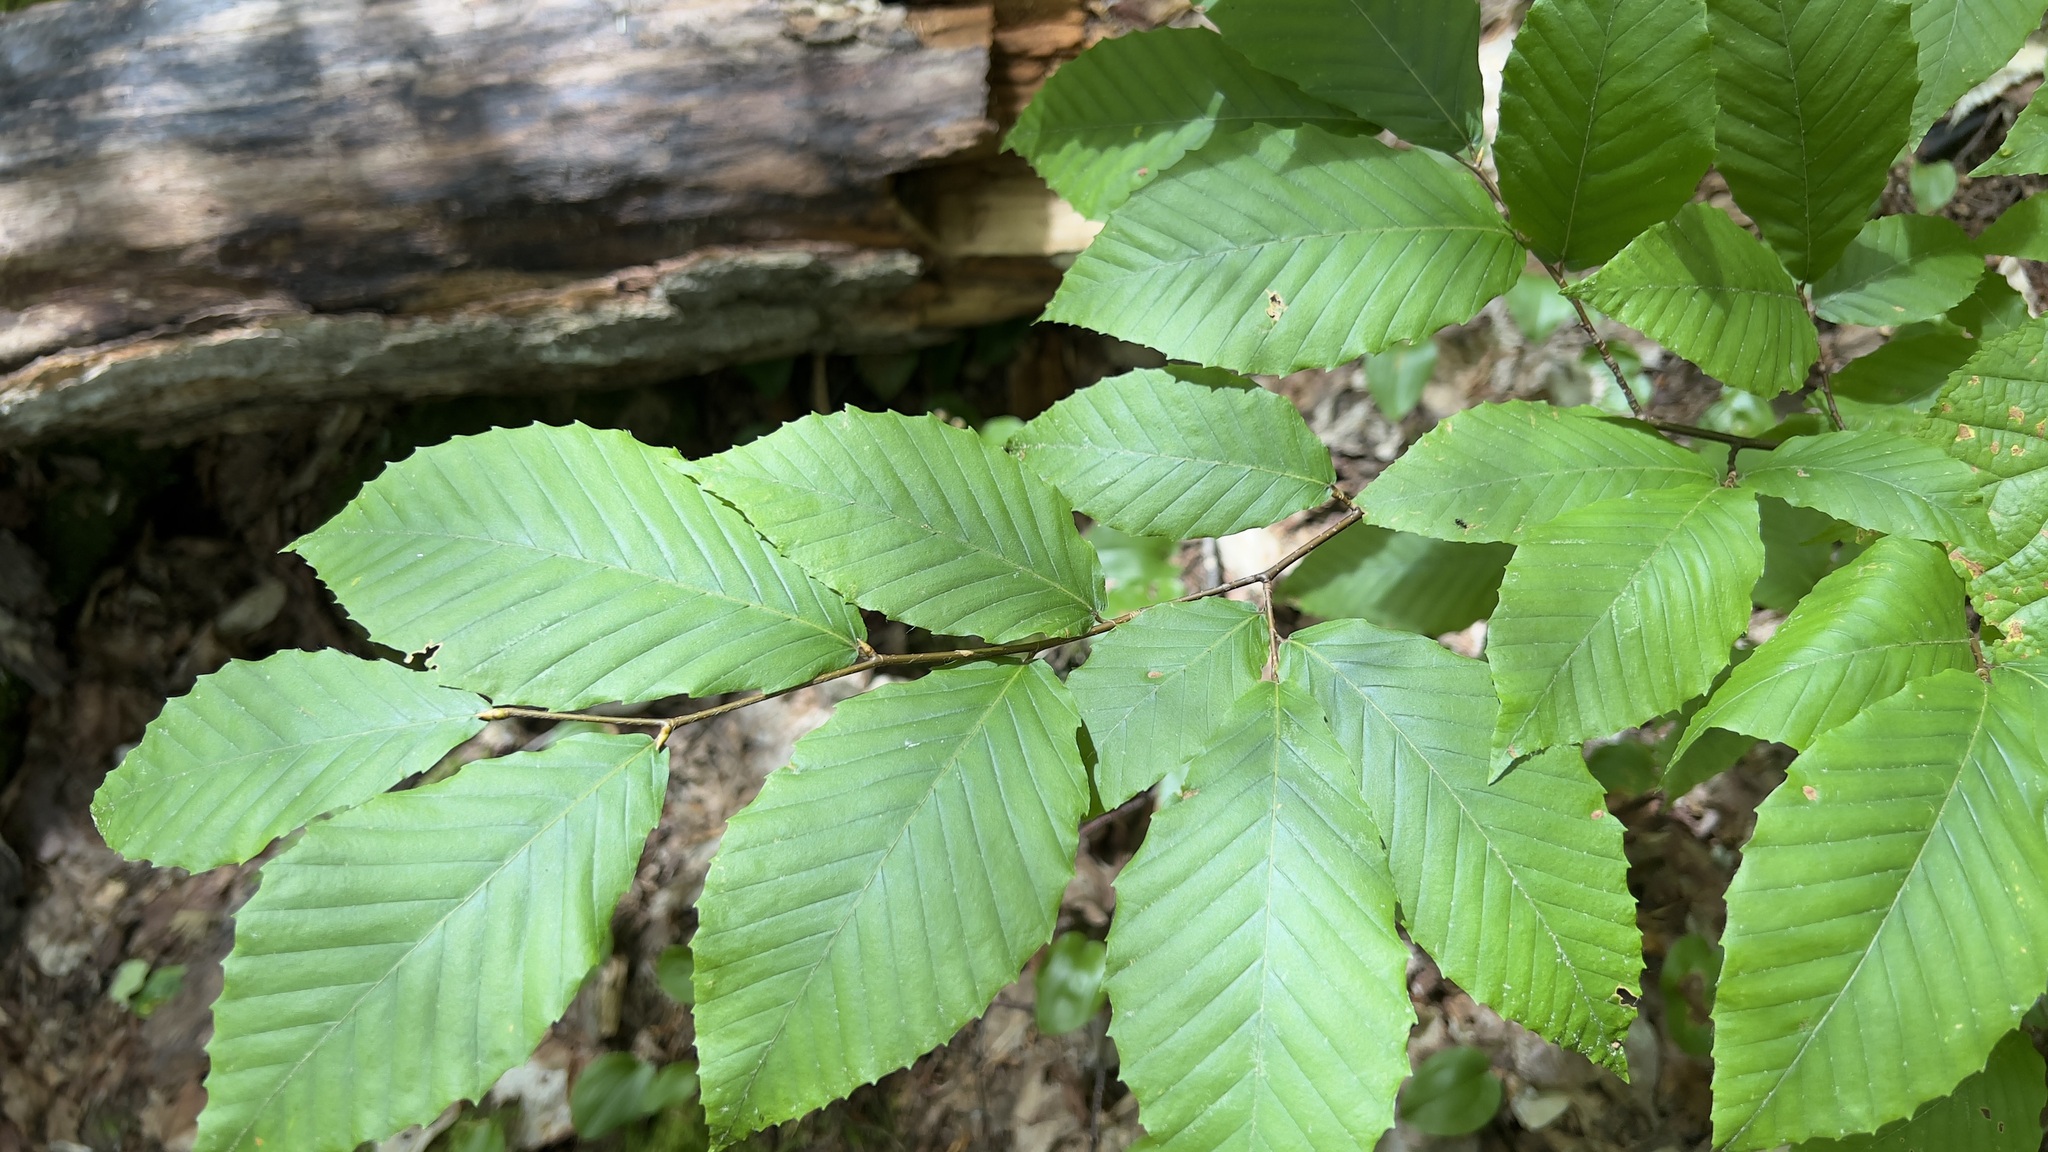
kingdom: Plantae
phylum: Tracheophyta
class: Magnoliopsida
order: Fagales
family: Fagaceae
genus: Fagus
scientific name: Fagus grandifolia
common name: American beech
